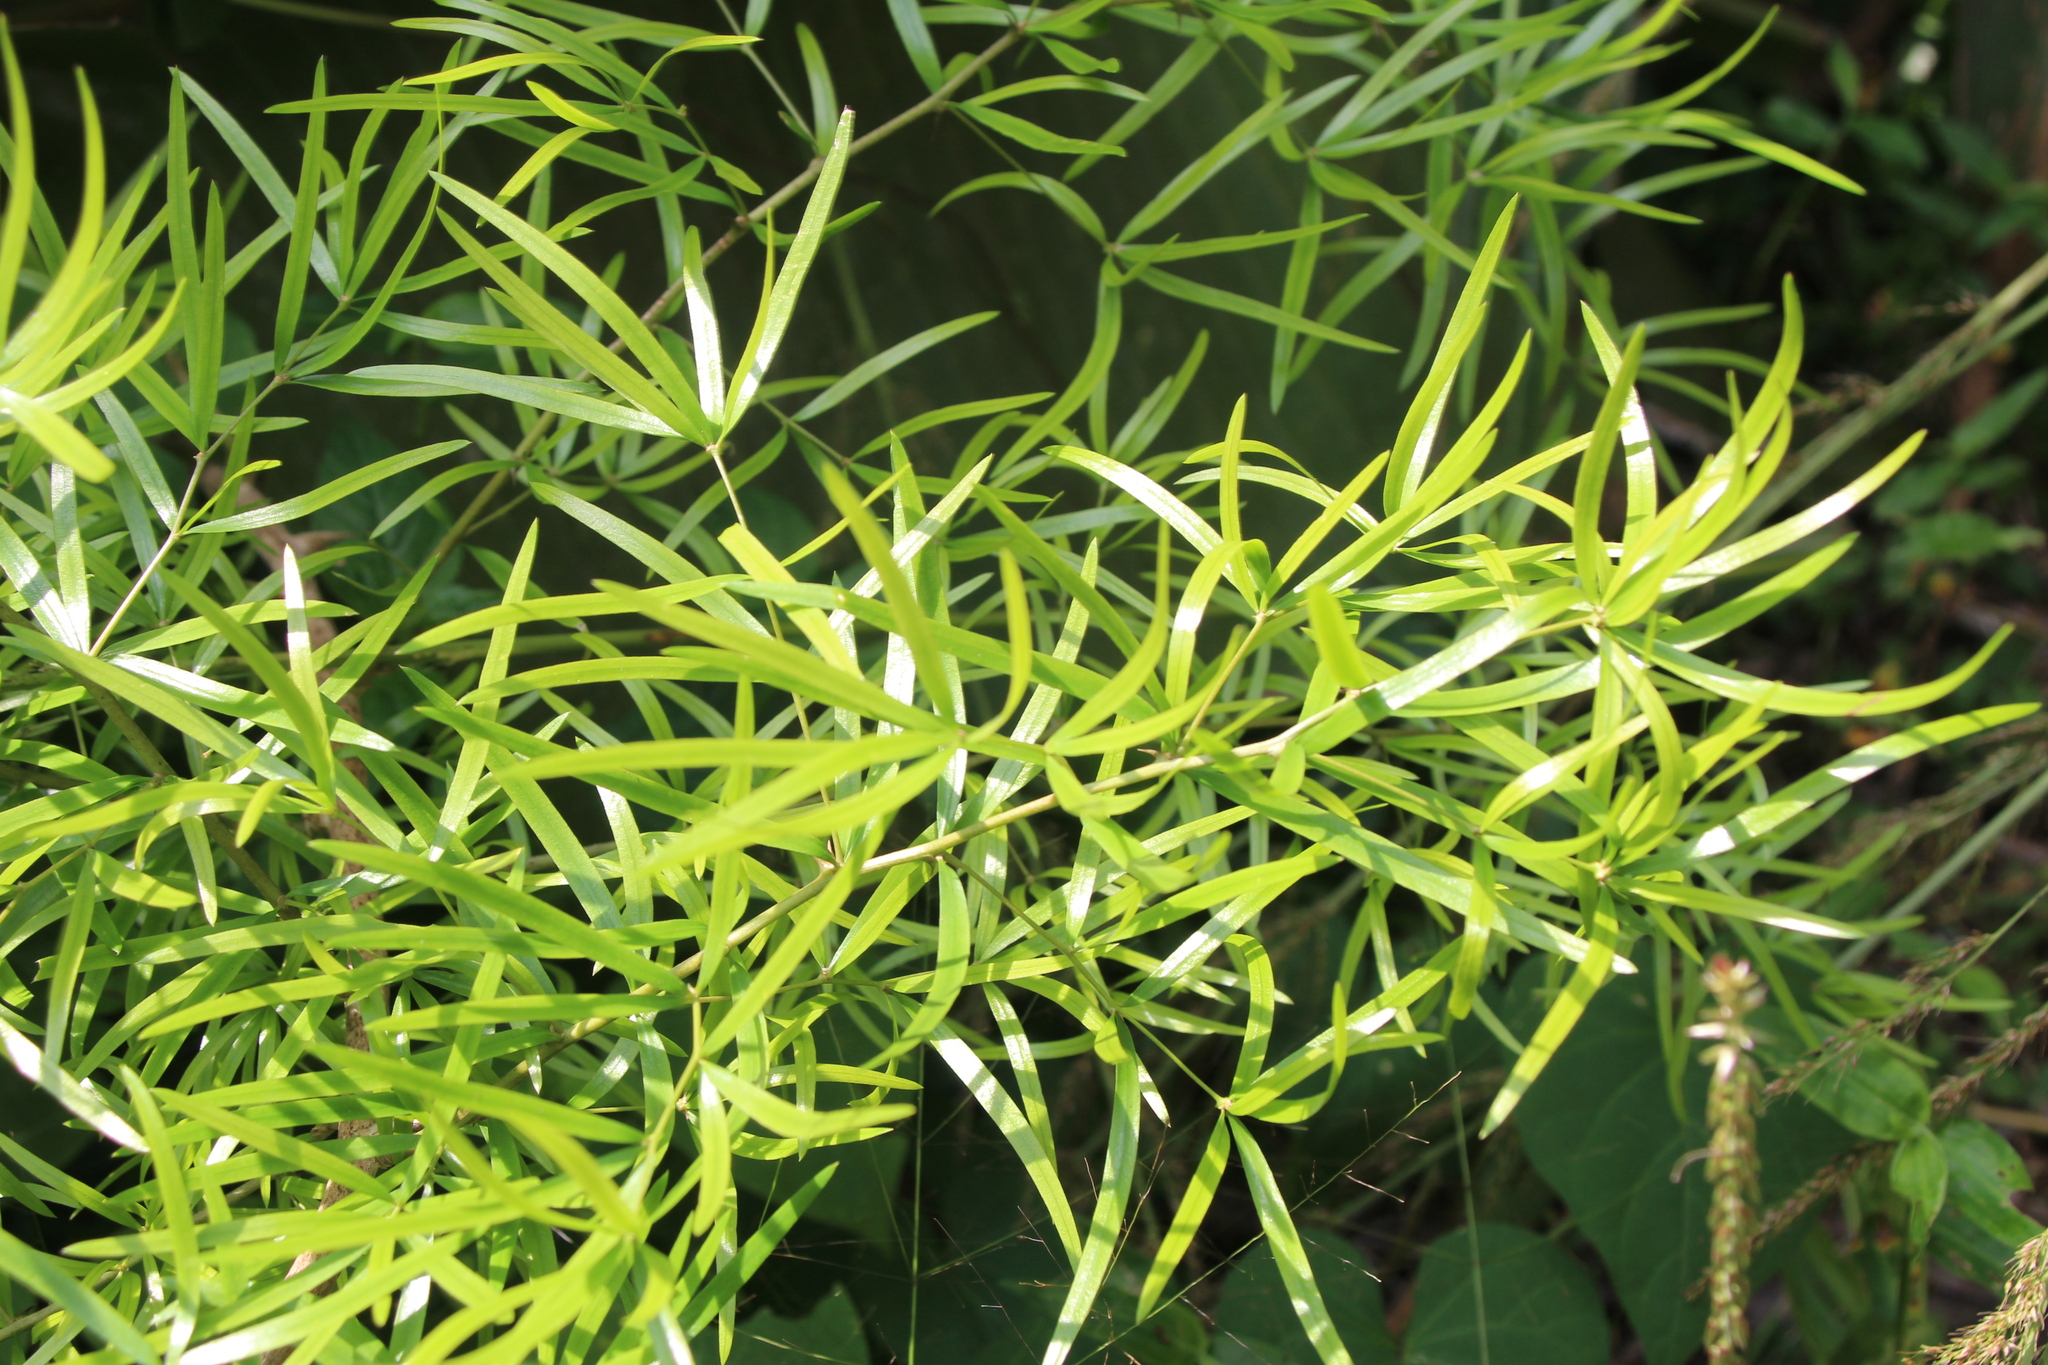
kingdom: Plantae
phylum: Tracheophyta
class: Liliopsida
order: Asparagales
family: Asparagaceae
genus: Asparagus
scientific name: Asparagus falcatus
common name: Asparagus
